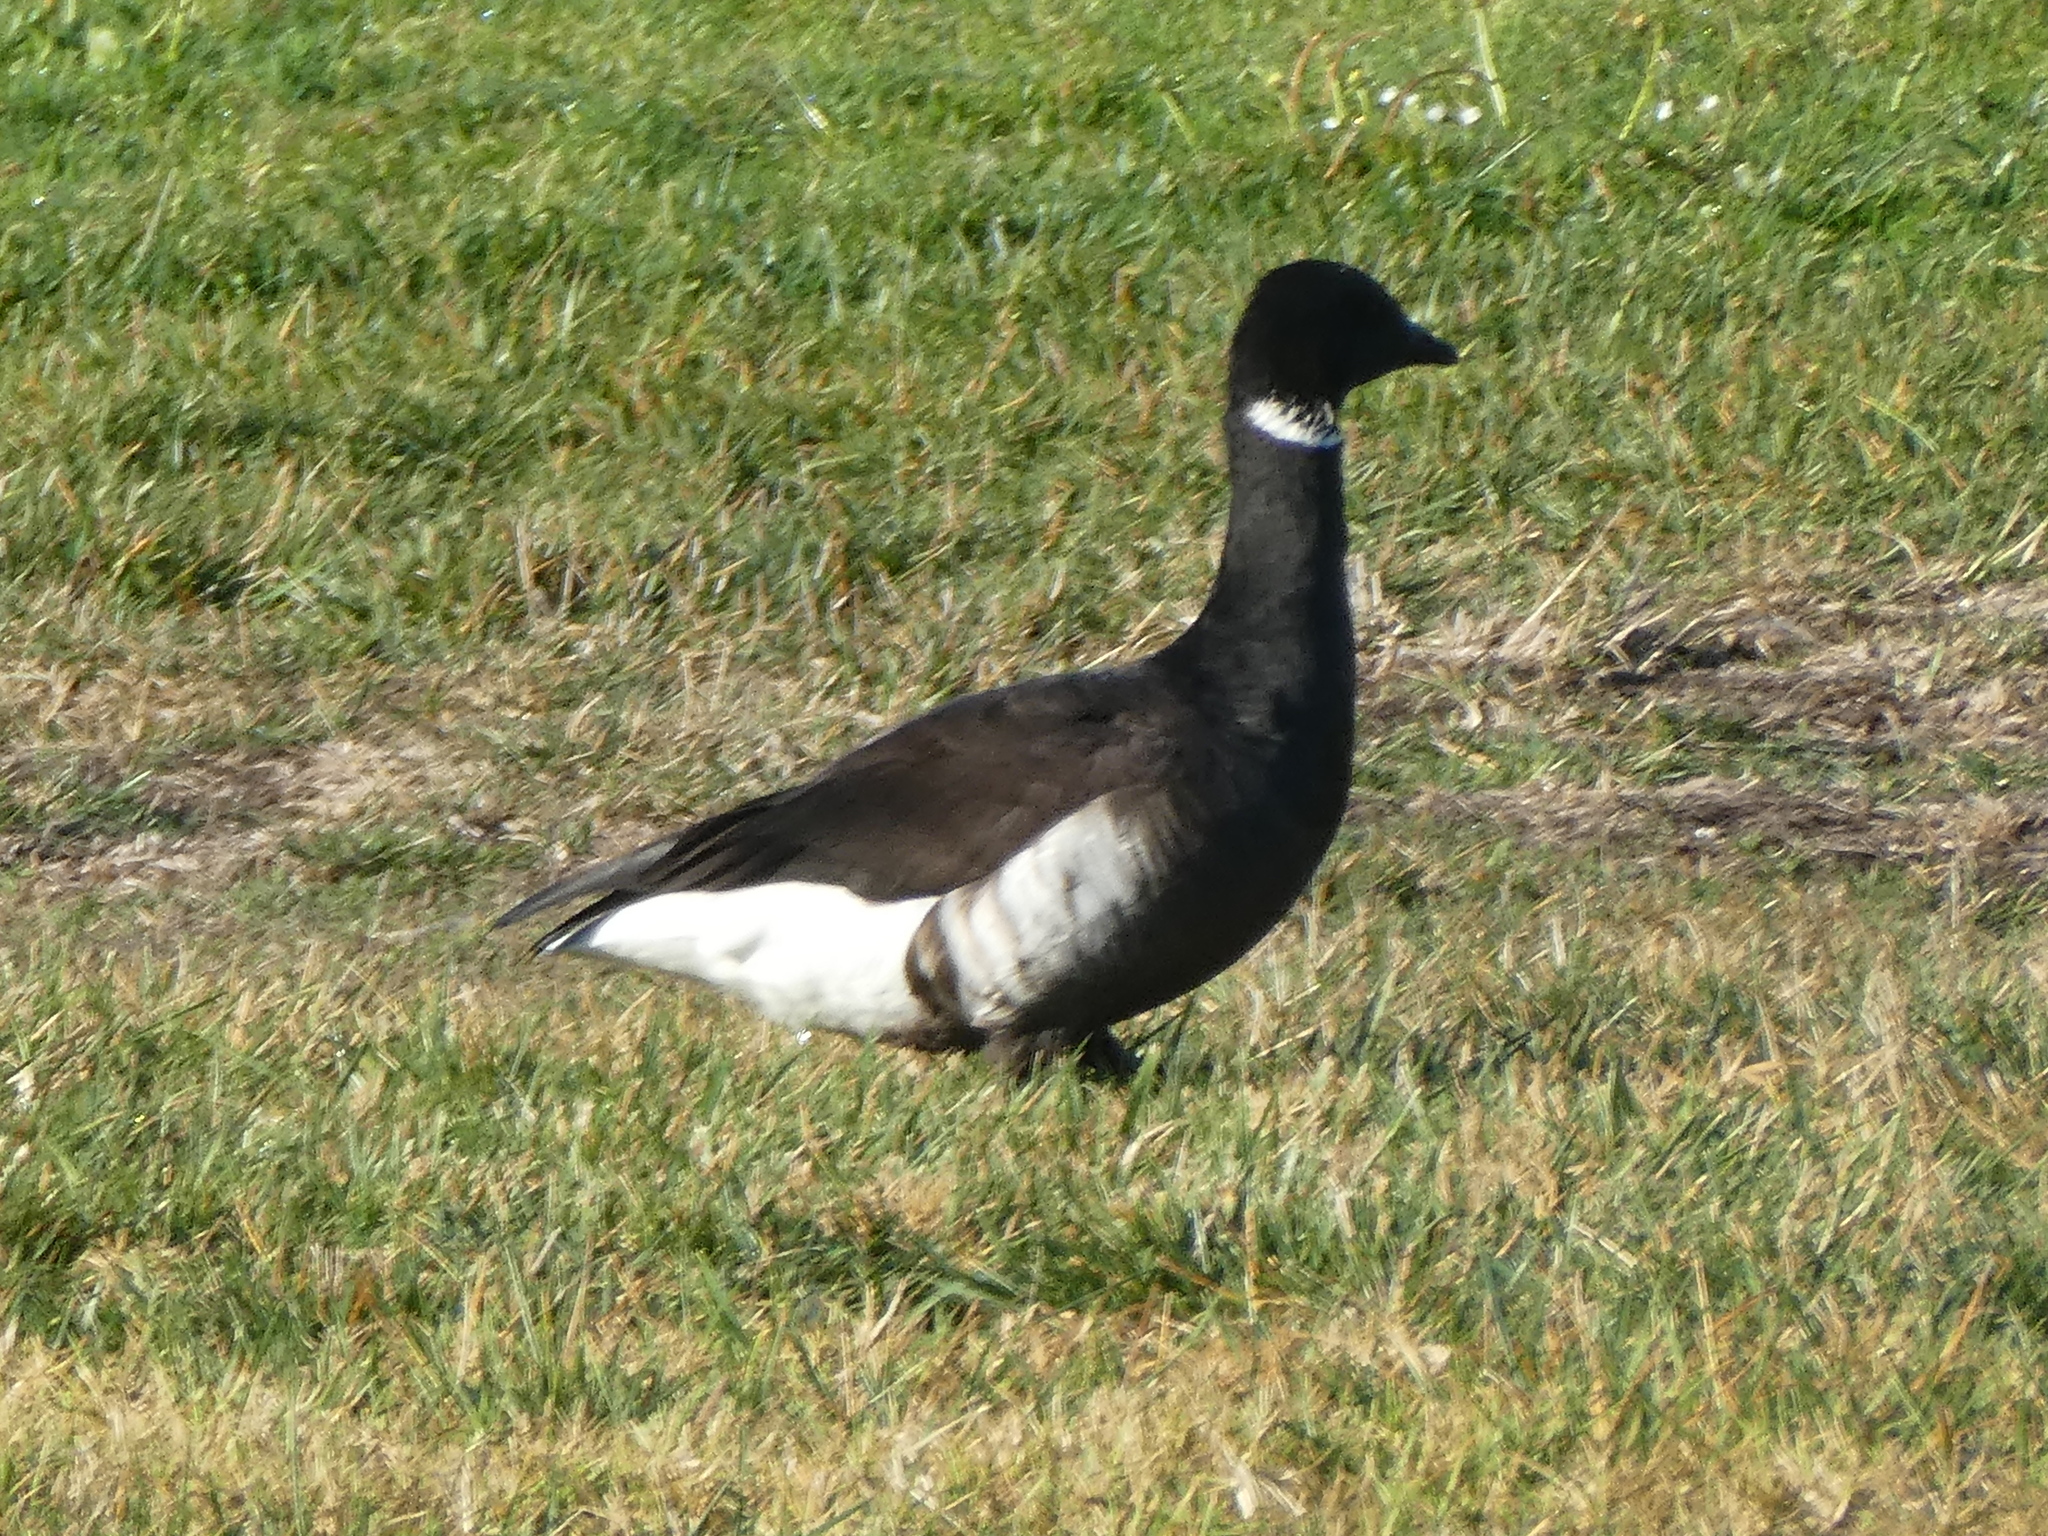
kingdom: Animalia
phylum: Chordata
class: Aves
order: Anseriformes
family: Anatidae
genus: Branta
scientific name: Branta bernicla
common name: Brant goose
